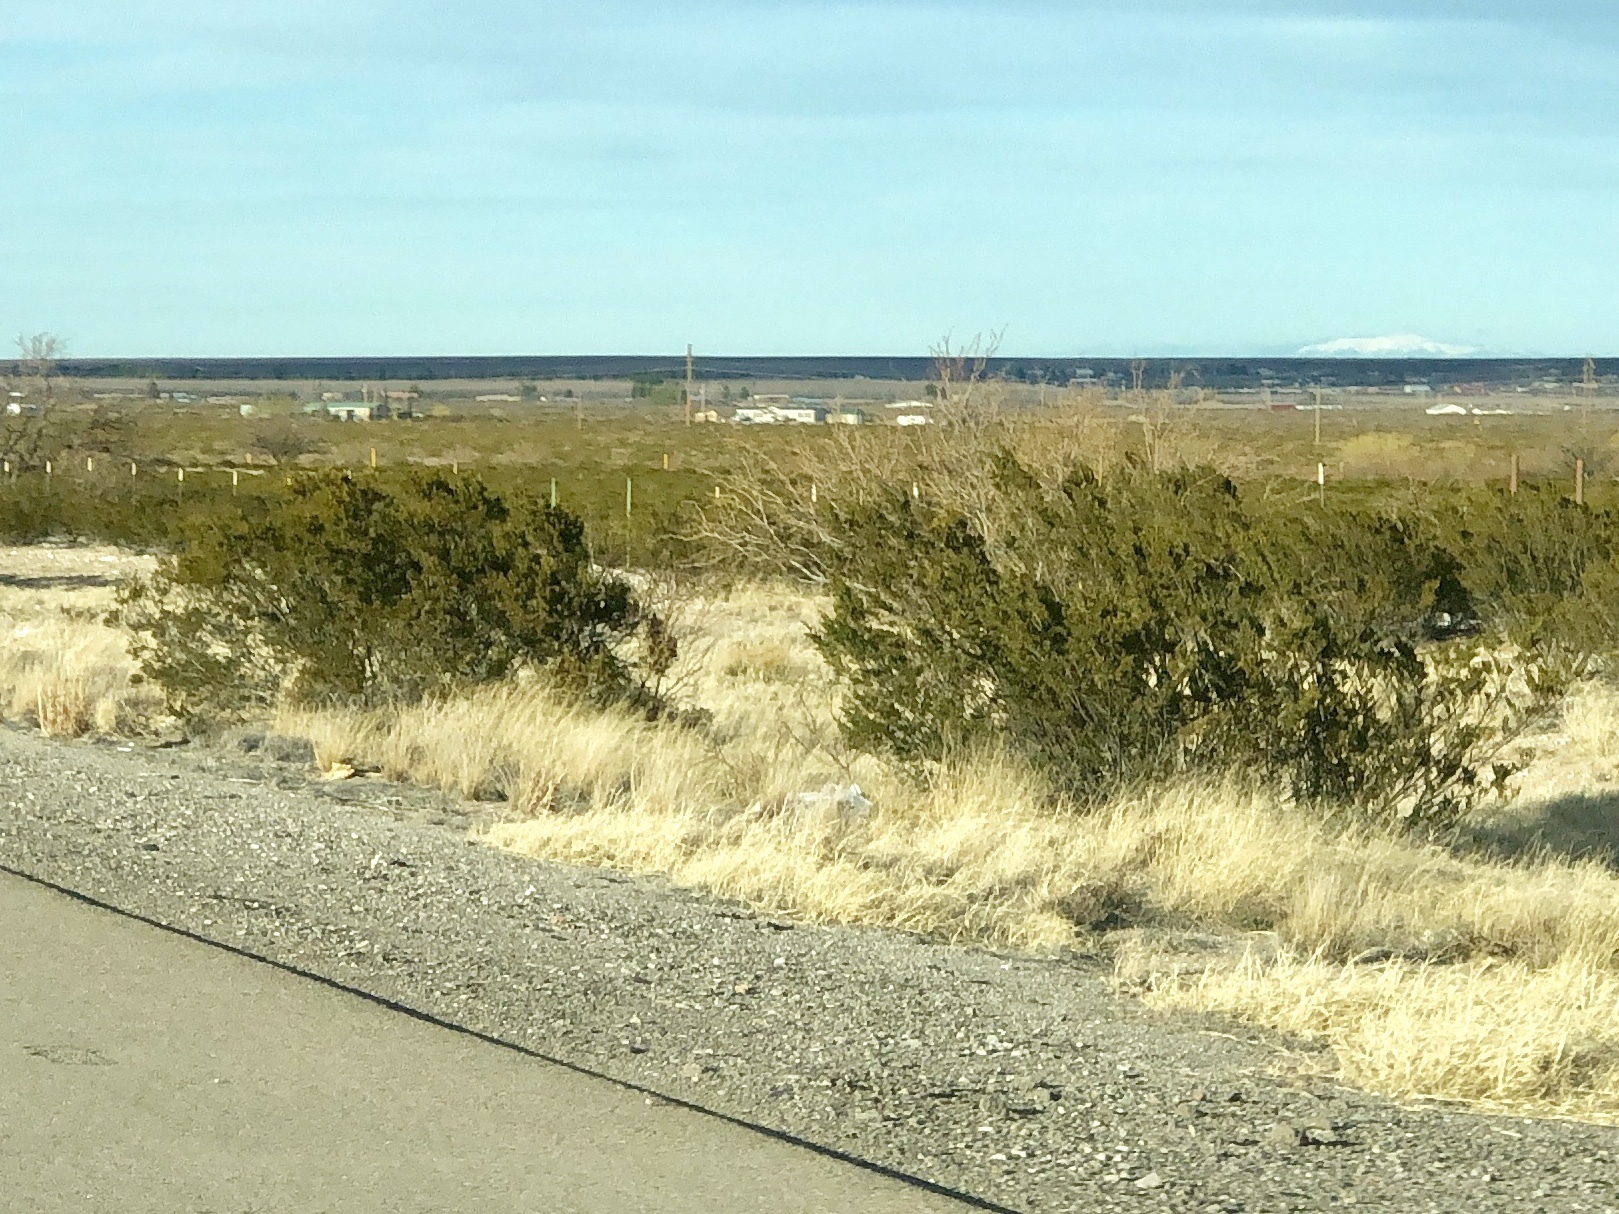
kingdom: Plantae
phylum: Tracheophyta
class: Magnoliopsida
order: Zygophyllales
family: Zygophyllaceae
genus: Larrea
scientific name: Larrea tridentata
